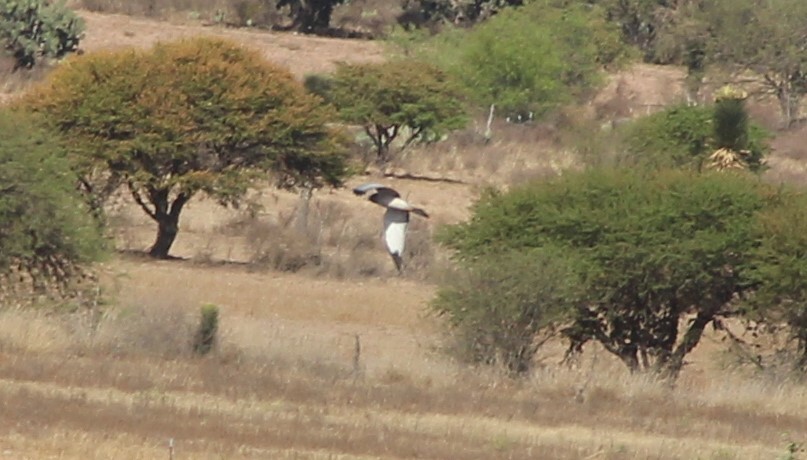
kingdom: Animalia
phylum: Chordata
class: Aves
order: Accipitriformes
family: Accipitridae
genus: Circus
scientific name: Circus cyaneus
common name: Hen harrier
